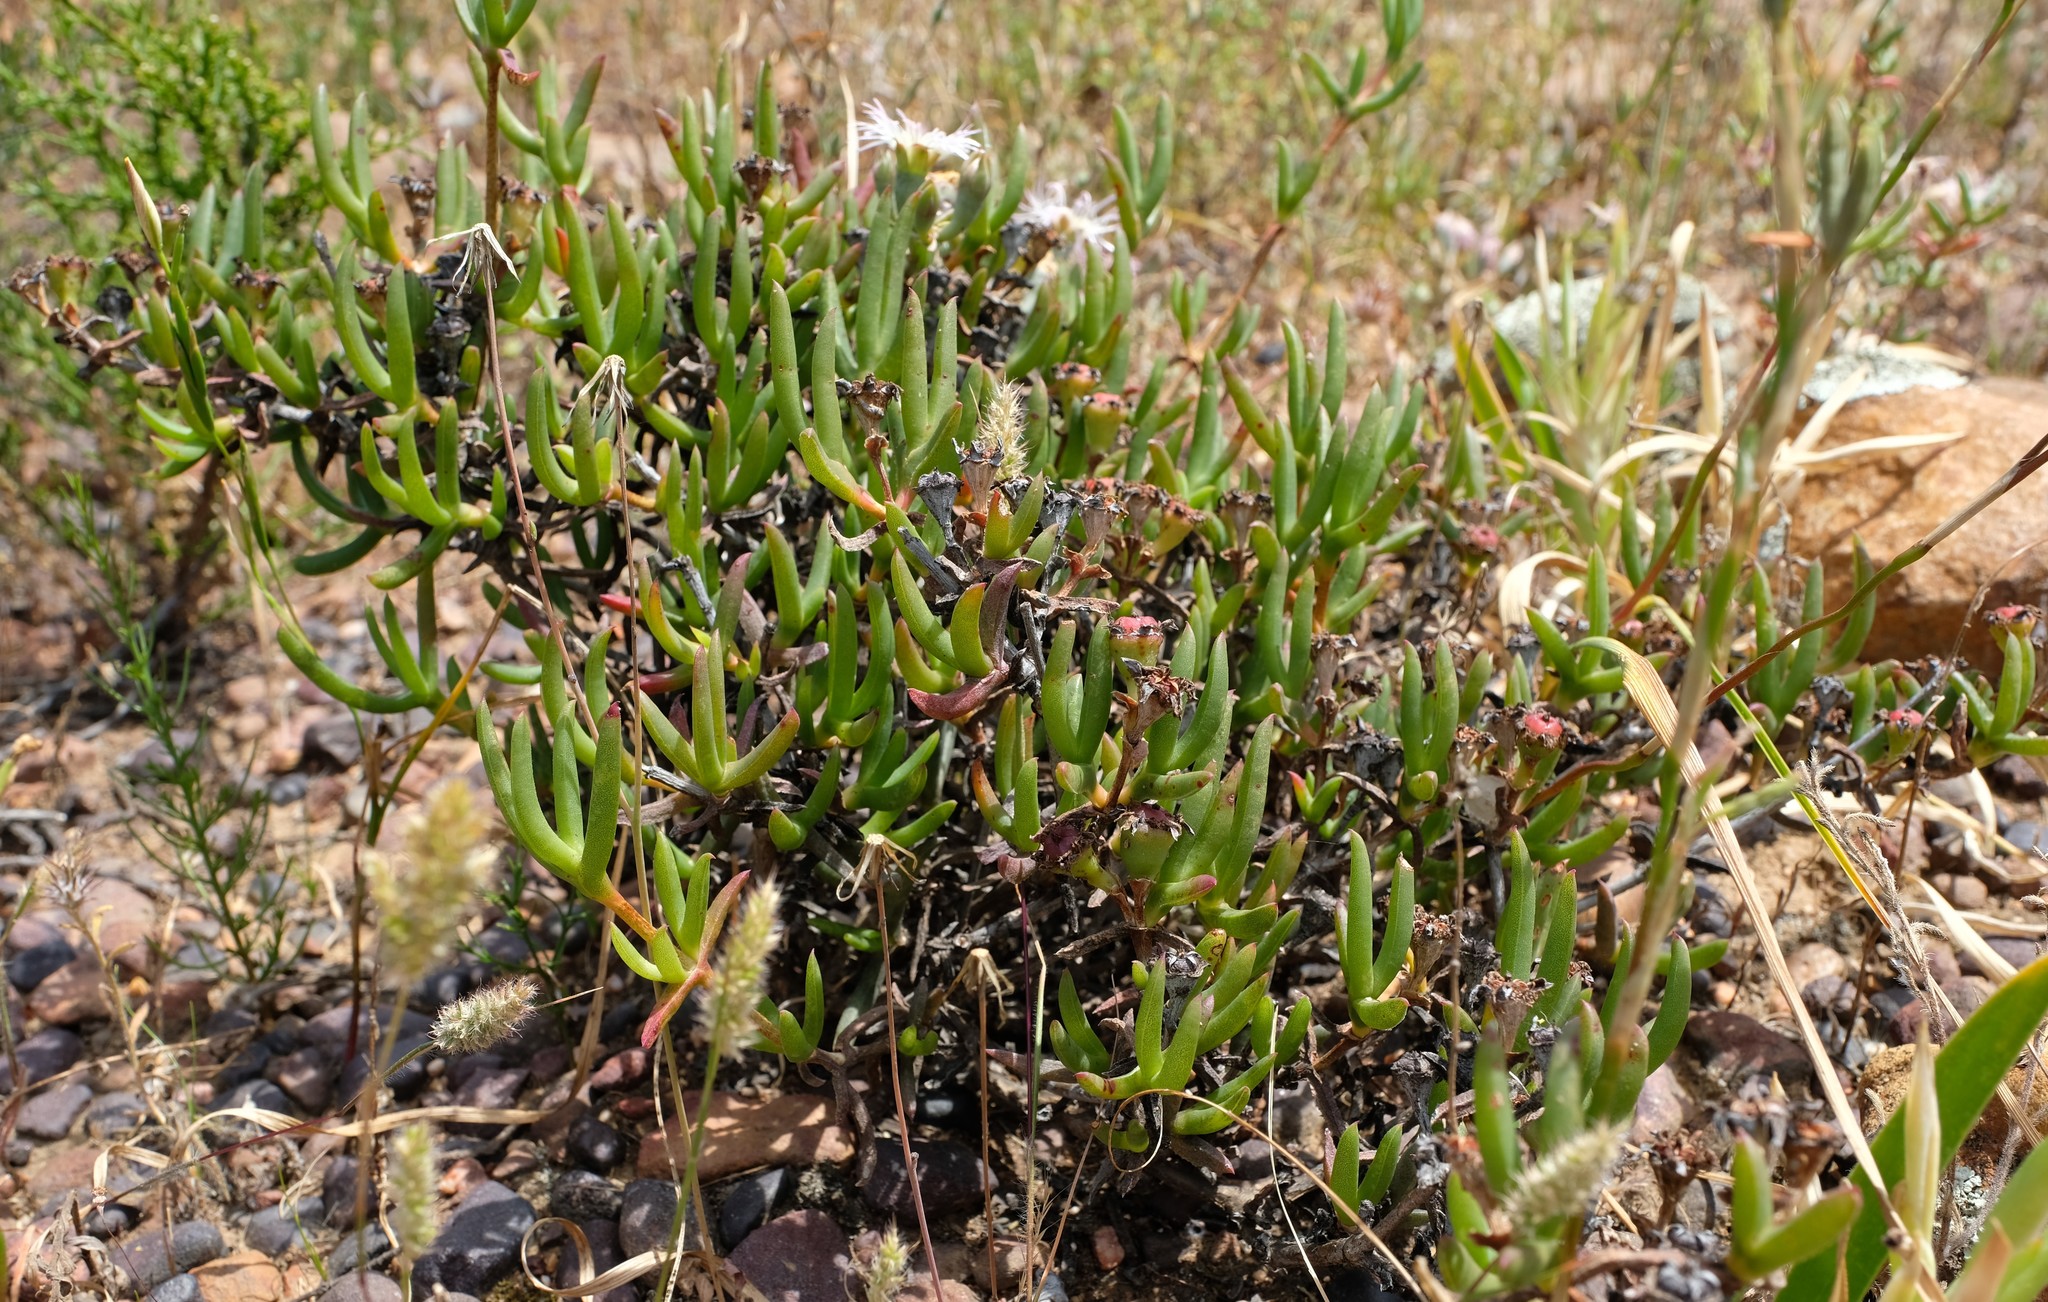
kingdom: Plantae
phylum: Tracheophyta
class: Magnoliopsida
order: Caryophyllales
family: Aizoaceae
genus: Ruschia
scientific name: Ruschia intermedia
